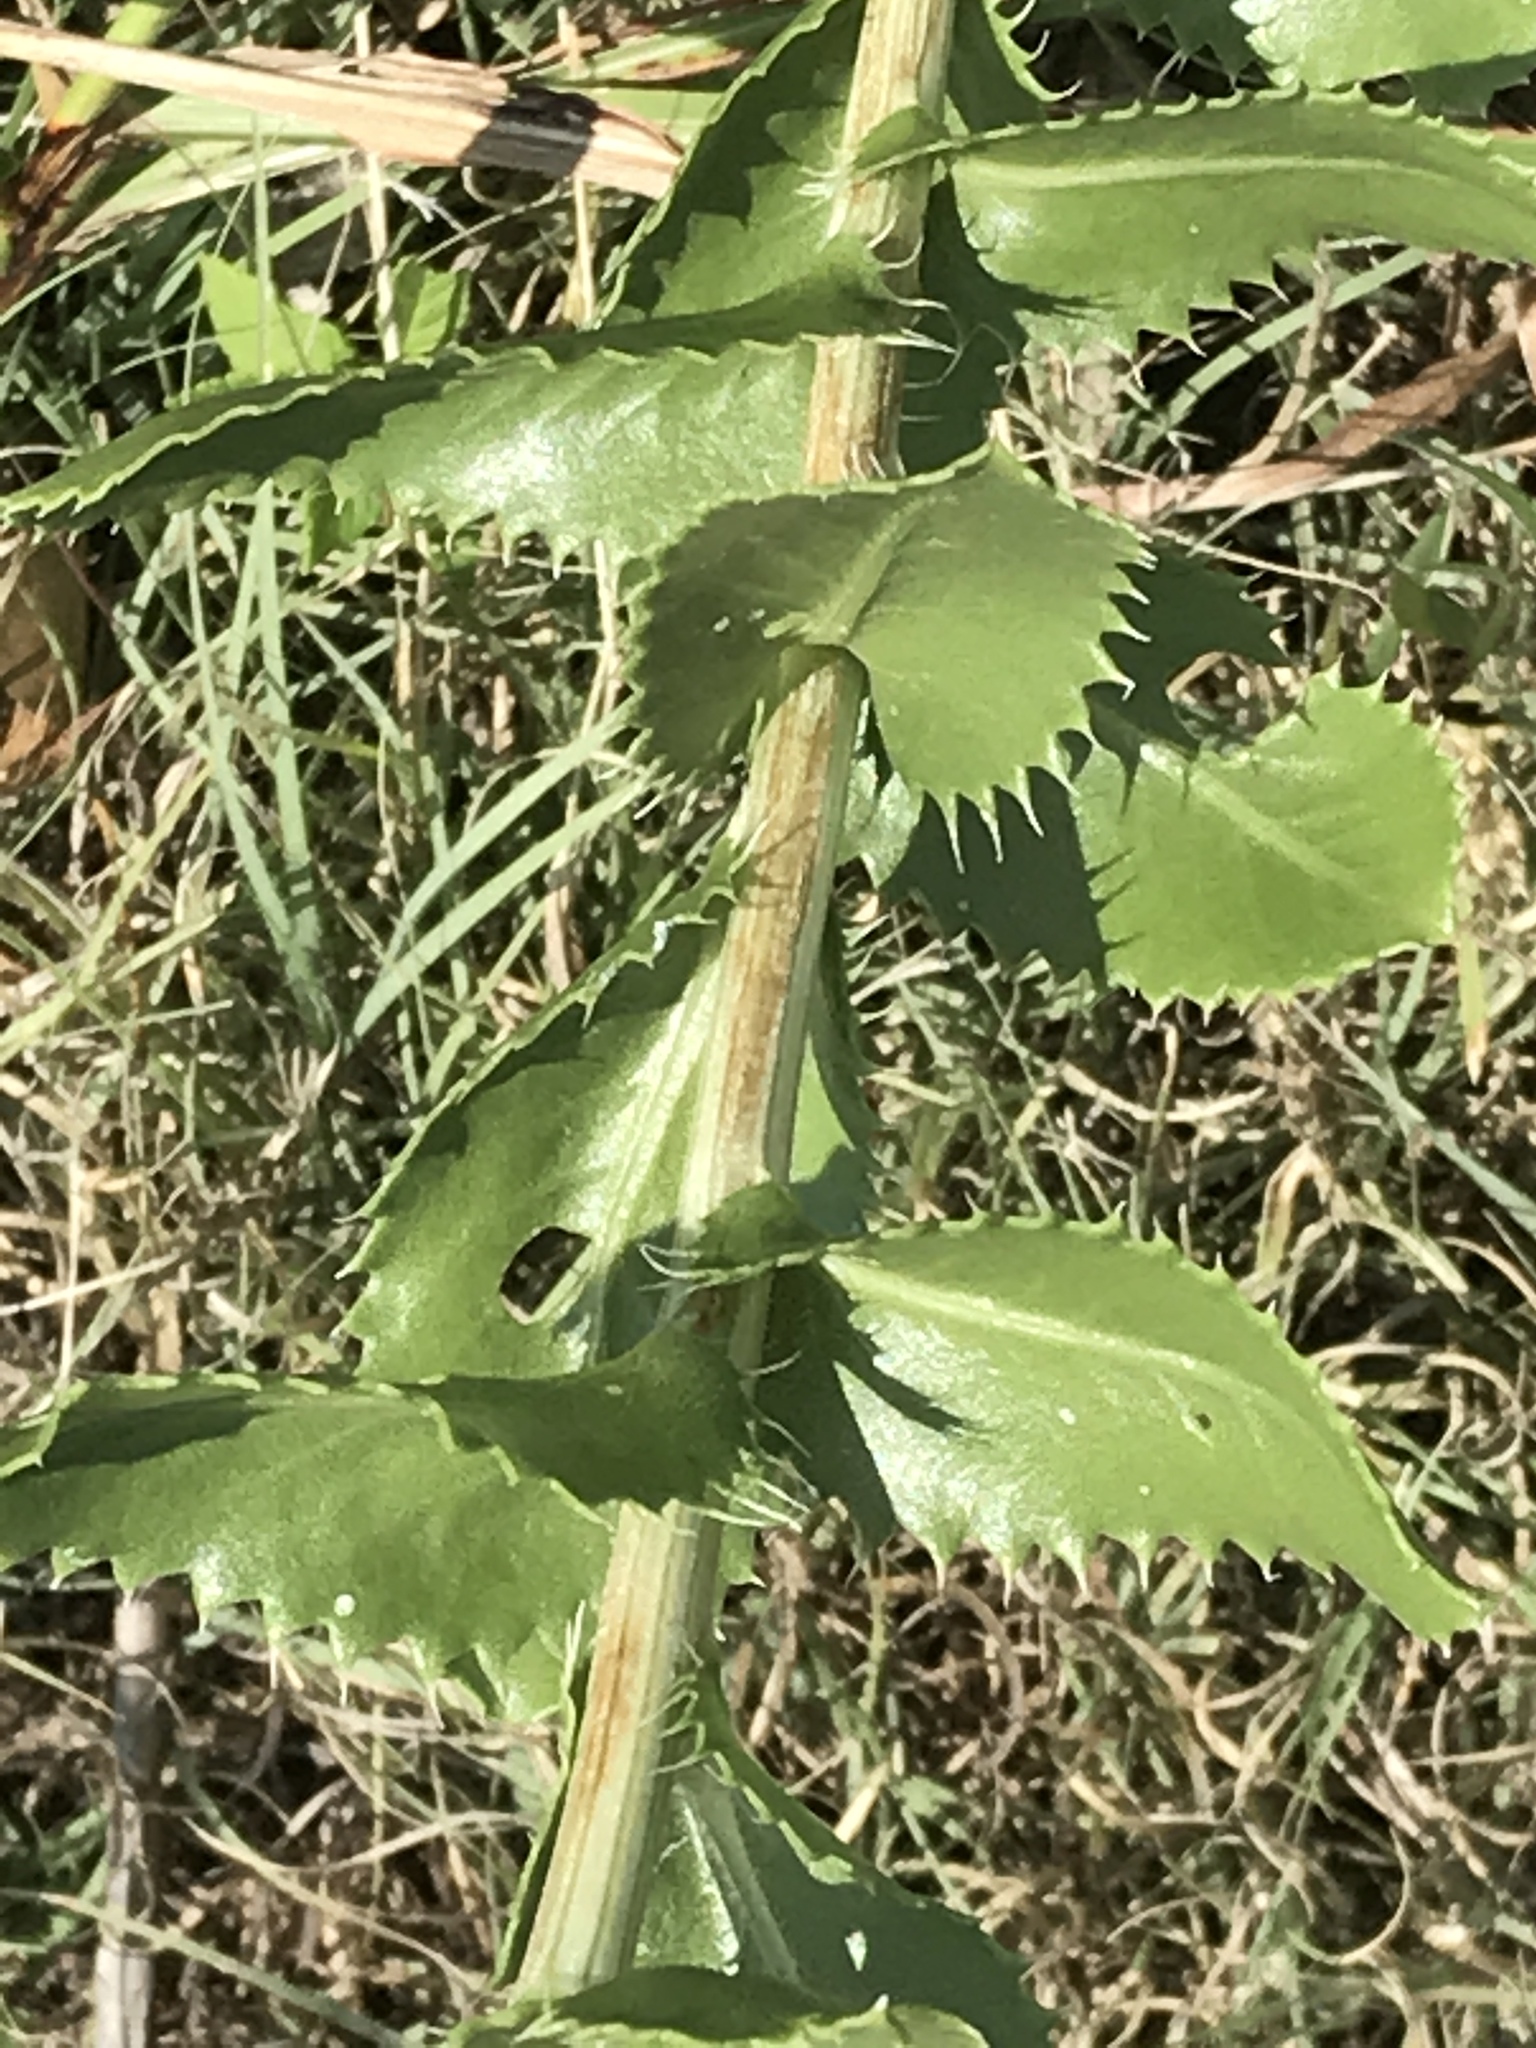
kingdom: Plantae
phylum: Tracheophyta
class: Magnoliopsida
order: Asterales
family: Asteraceae
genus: Grindelia
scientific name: Grindelia ciliata
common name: Goldenweed
